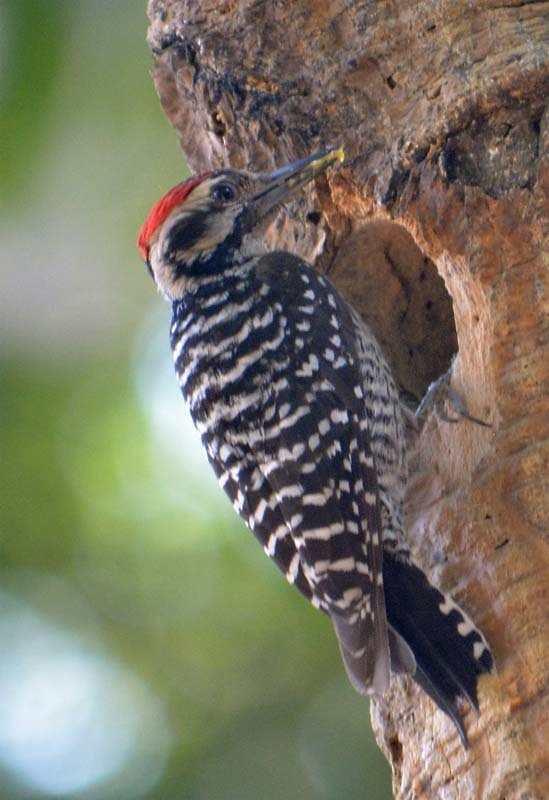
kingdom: Animalia
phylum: Chordata
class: Aves
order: Piciformes
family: Picidae
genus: Dryobates
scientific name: Dryobates scalaris
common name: Ladder-backed woodpecker
